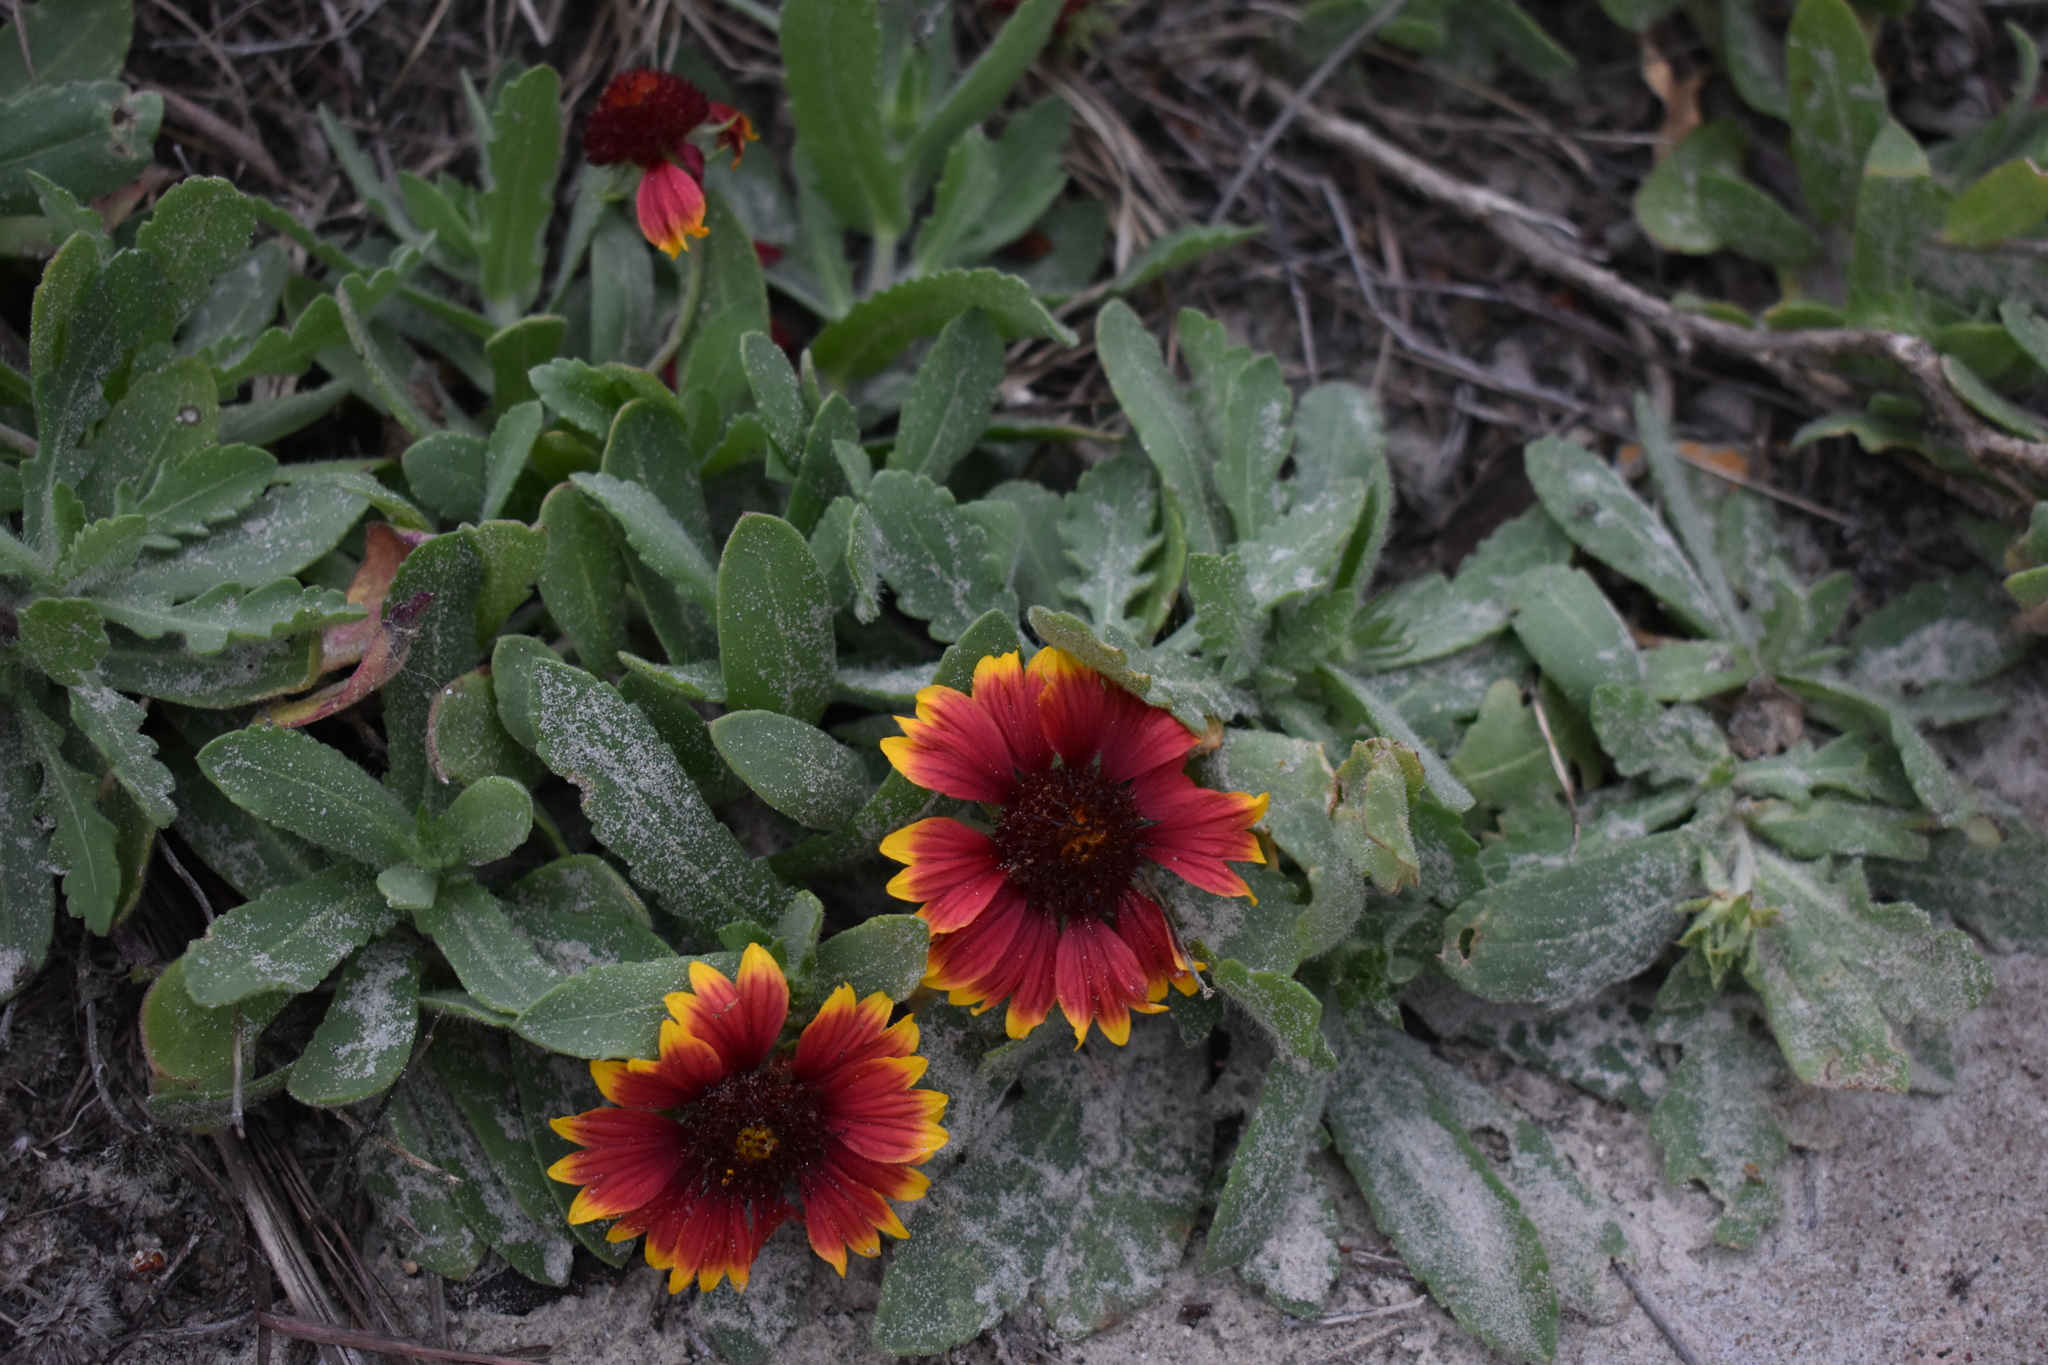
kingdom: Plantae
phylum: Tracheophyta
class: Magnoliopsida
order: Asterales
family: Asteraceae
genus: Gaillardia
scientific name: Gaillardia pulchella
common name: Firewheel
